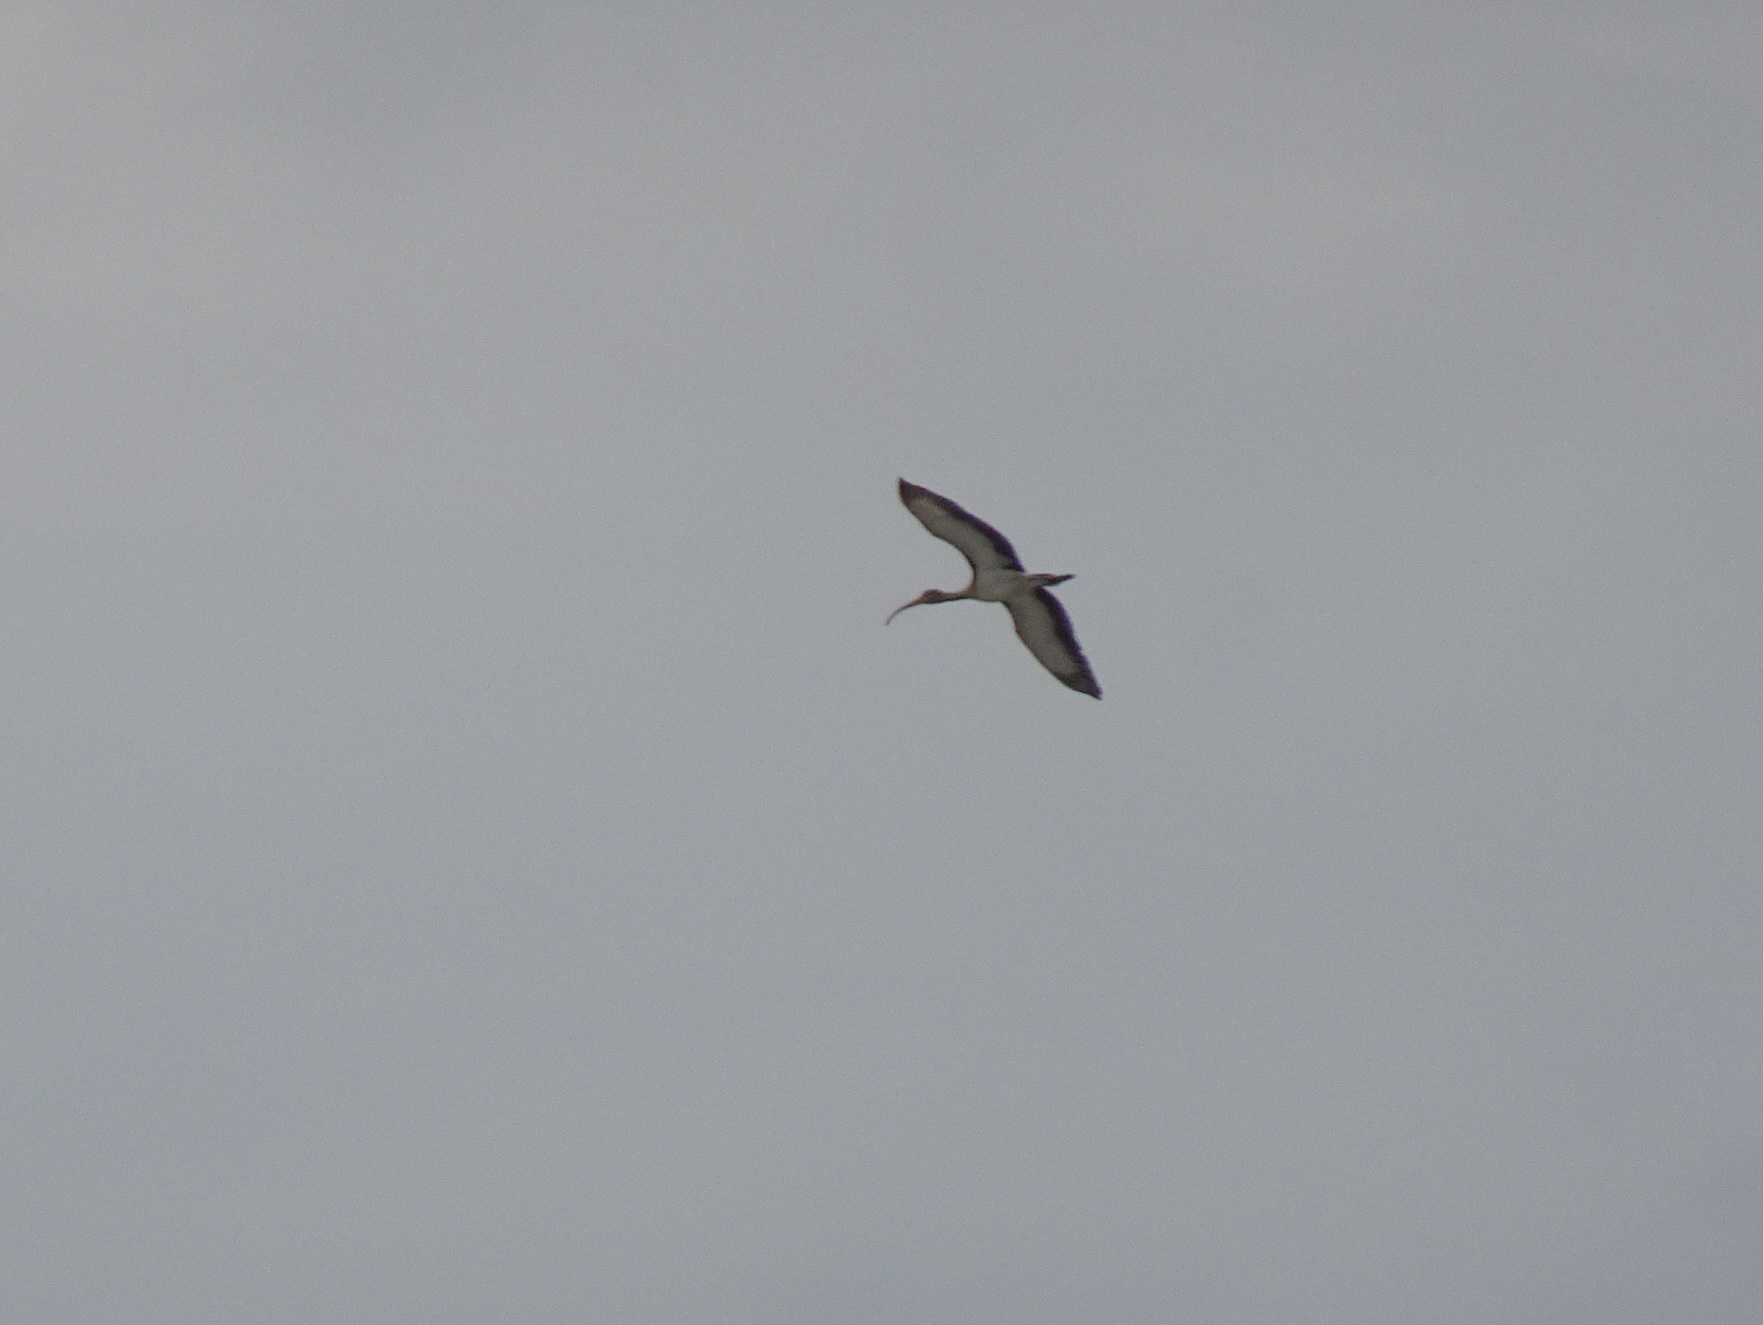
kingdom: Animalia
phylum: Chordata
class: Aves
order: Pelecaniformes
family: Threskiornithidae
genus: Eudocimus
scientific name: Eudocimus albus
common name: White ibis
